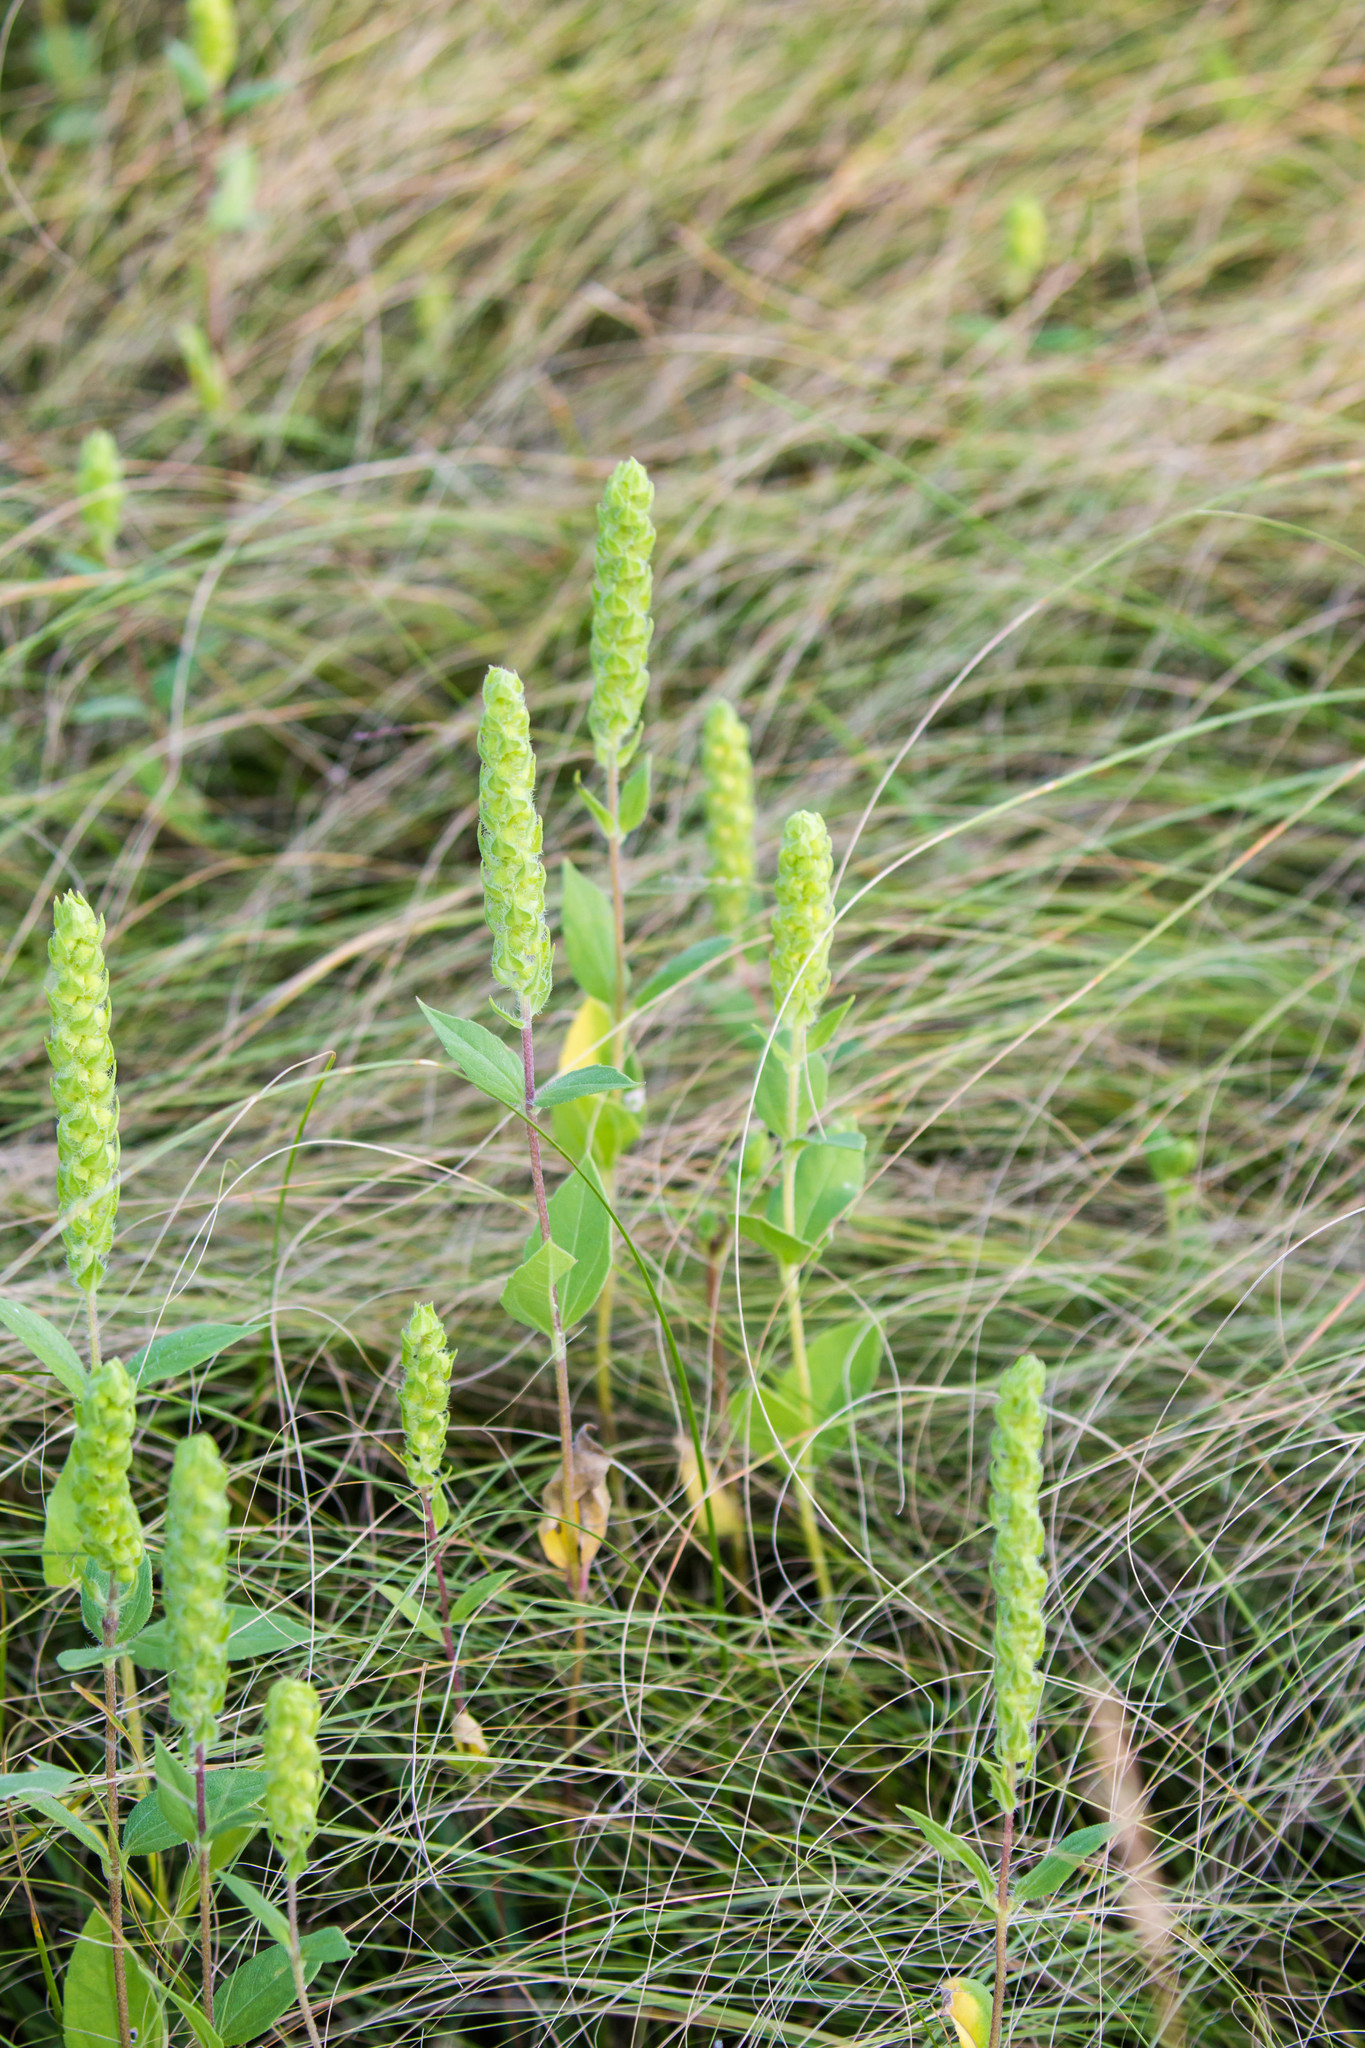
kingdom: Plantae
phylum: Tracheophyta
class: Magnoliopsida
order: Asterales
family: Asteraceae
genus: Iva
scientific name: Iva annua
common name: Marsh-elder
